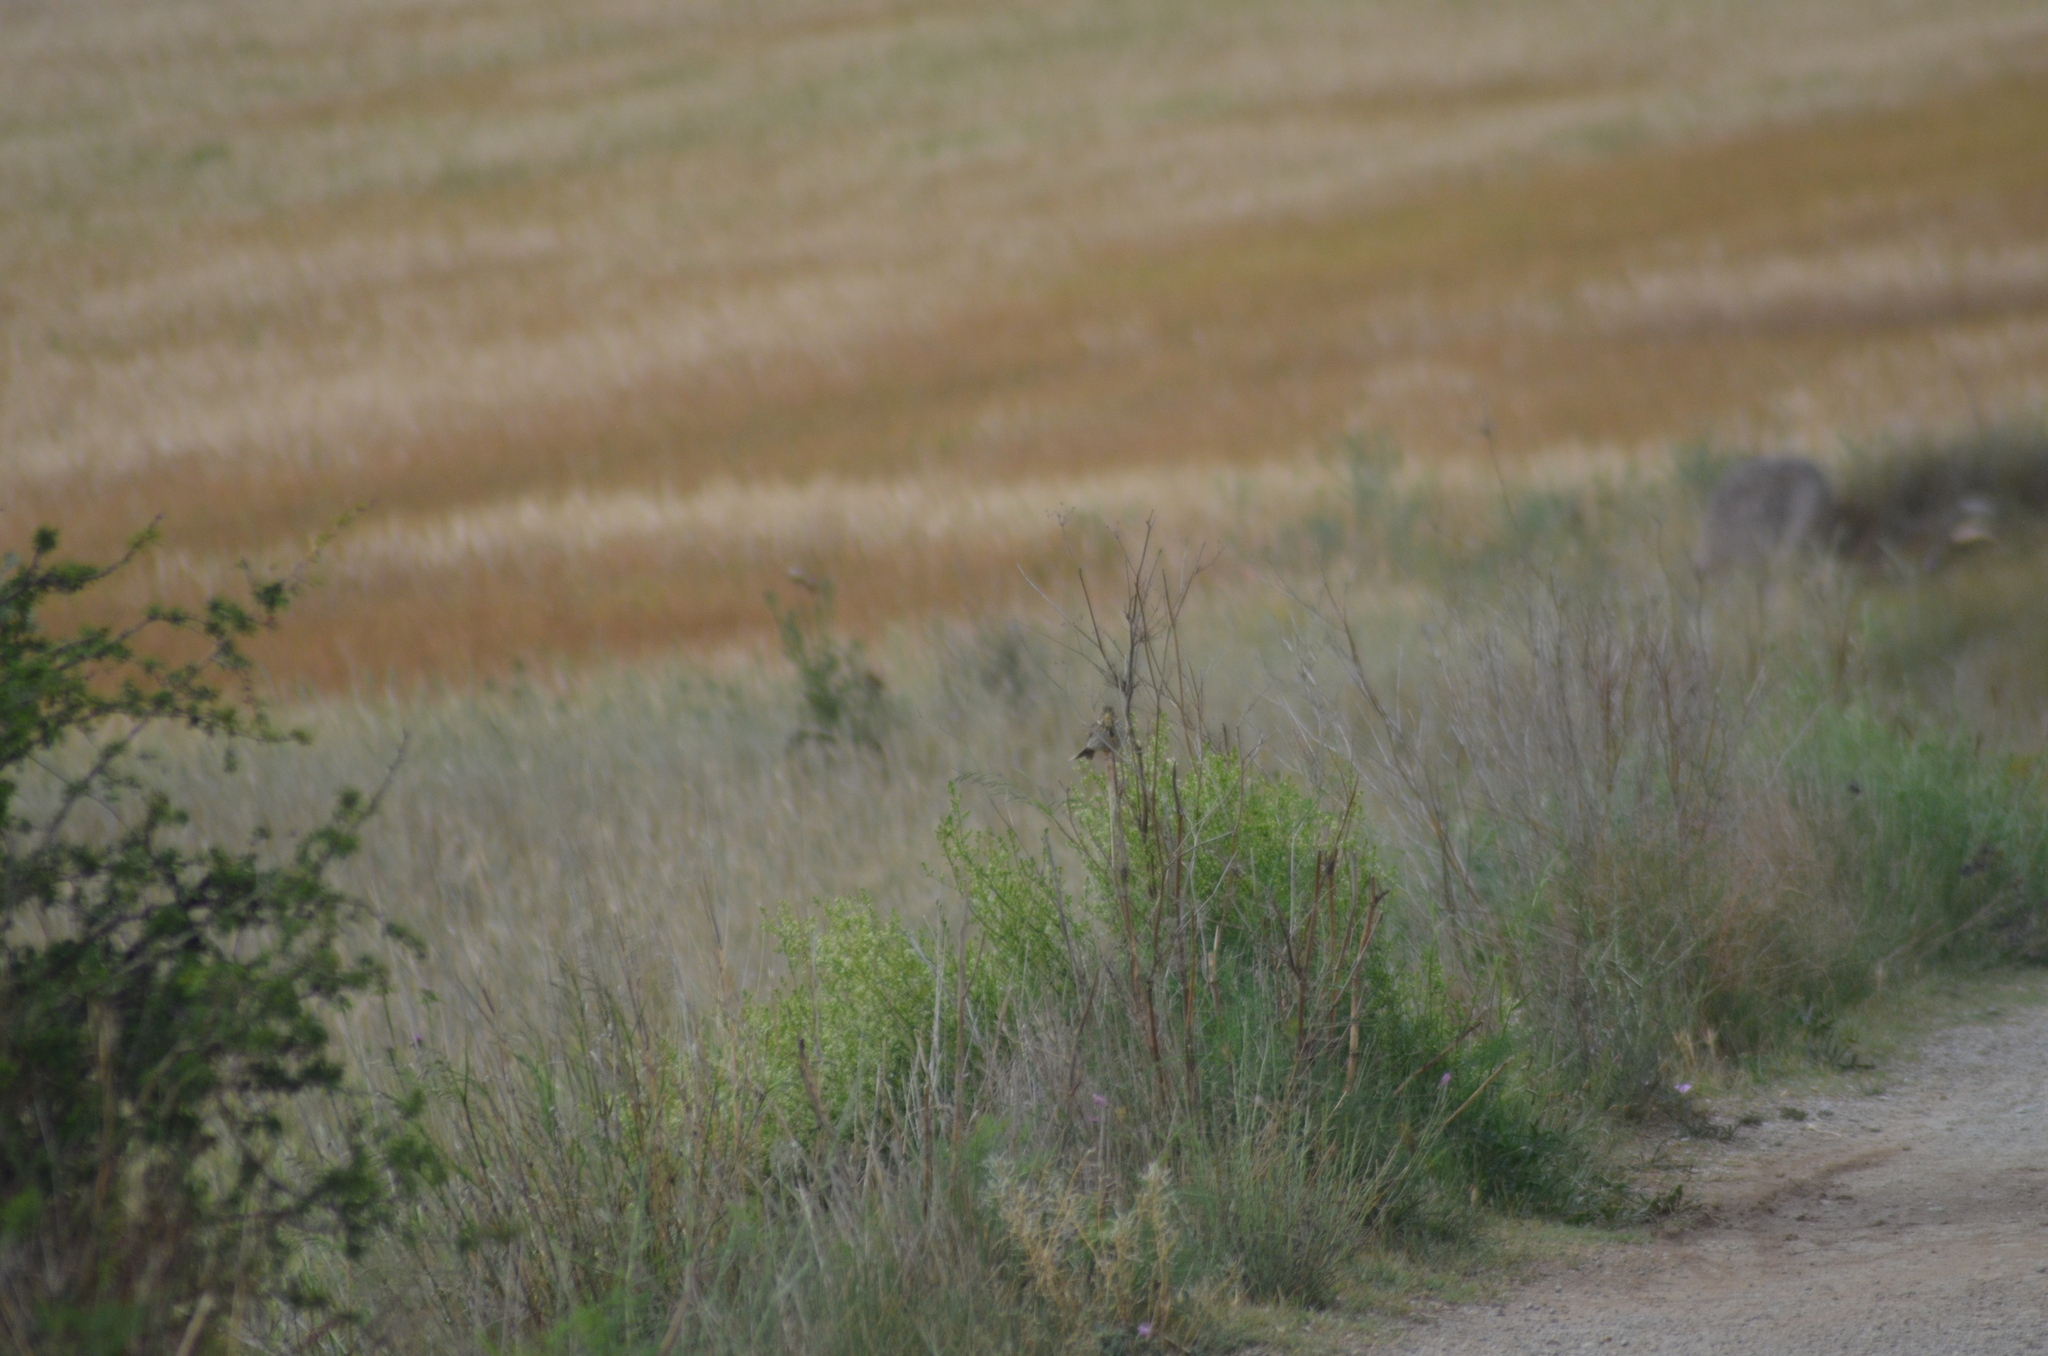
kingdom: Animalia
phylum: Chordata
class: Aves
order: Passeriformes
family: Emberizidae
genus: Emberiza
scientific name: Emberiza calandra
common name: Corn bunting
